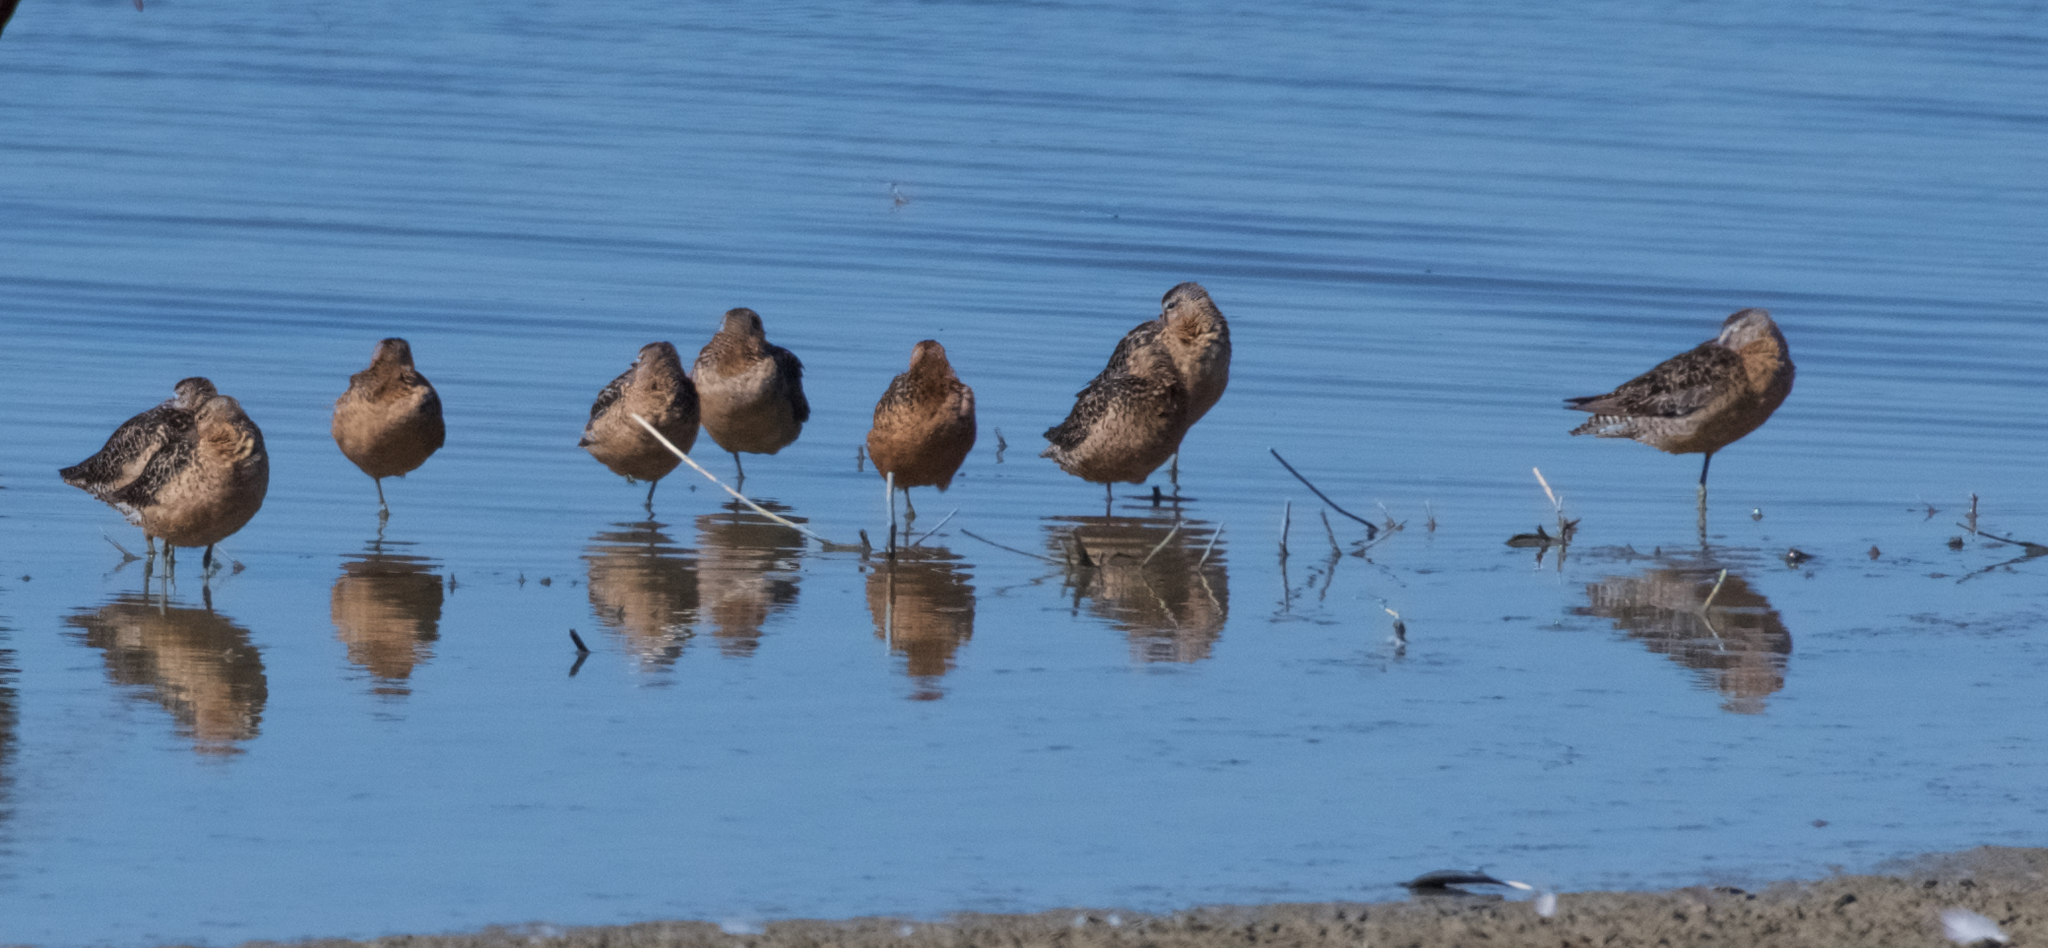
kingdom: Animalia
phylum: Chordata
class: Aves
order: Charadriiformes
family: Scolopacidae
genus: Limnodromus
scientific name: Limnodromus scolopaceus
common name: Long-billed dowitcher
